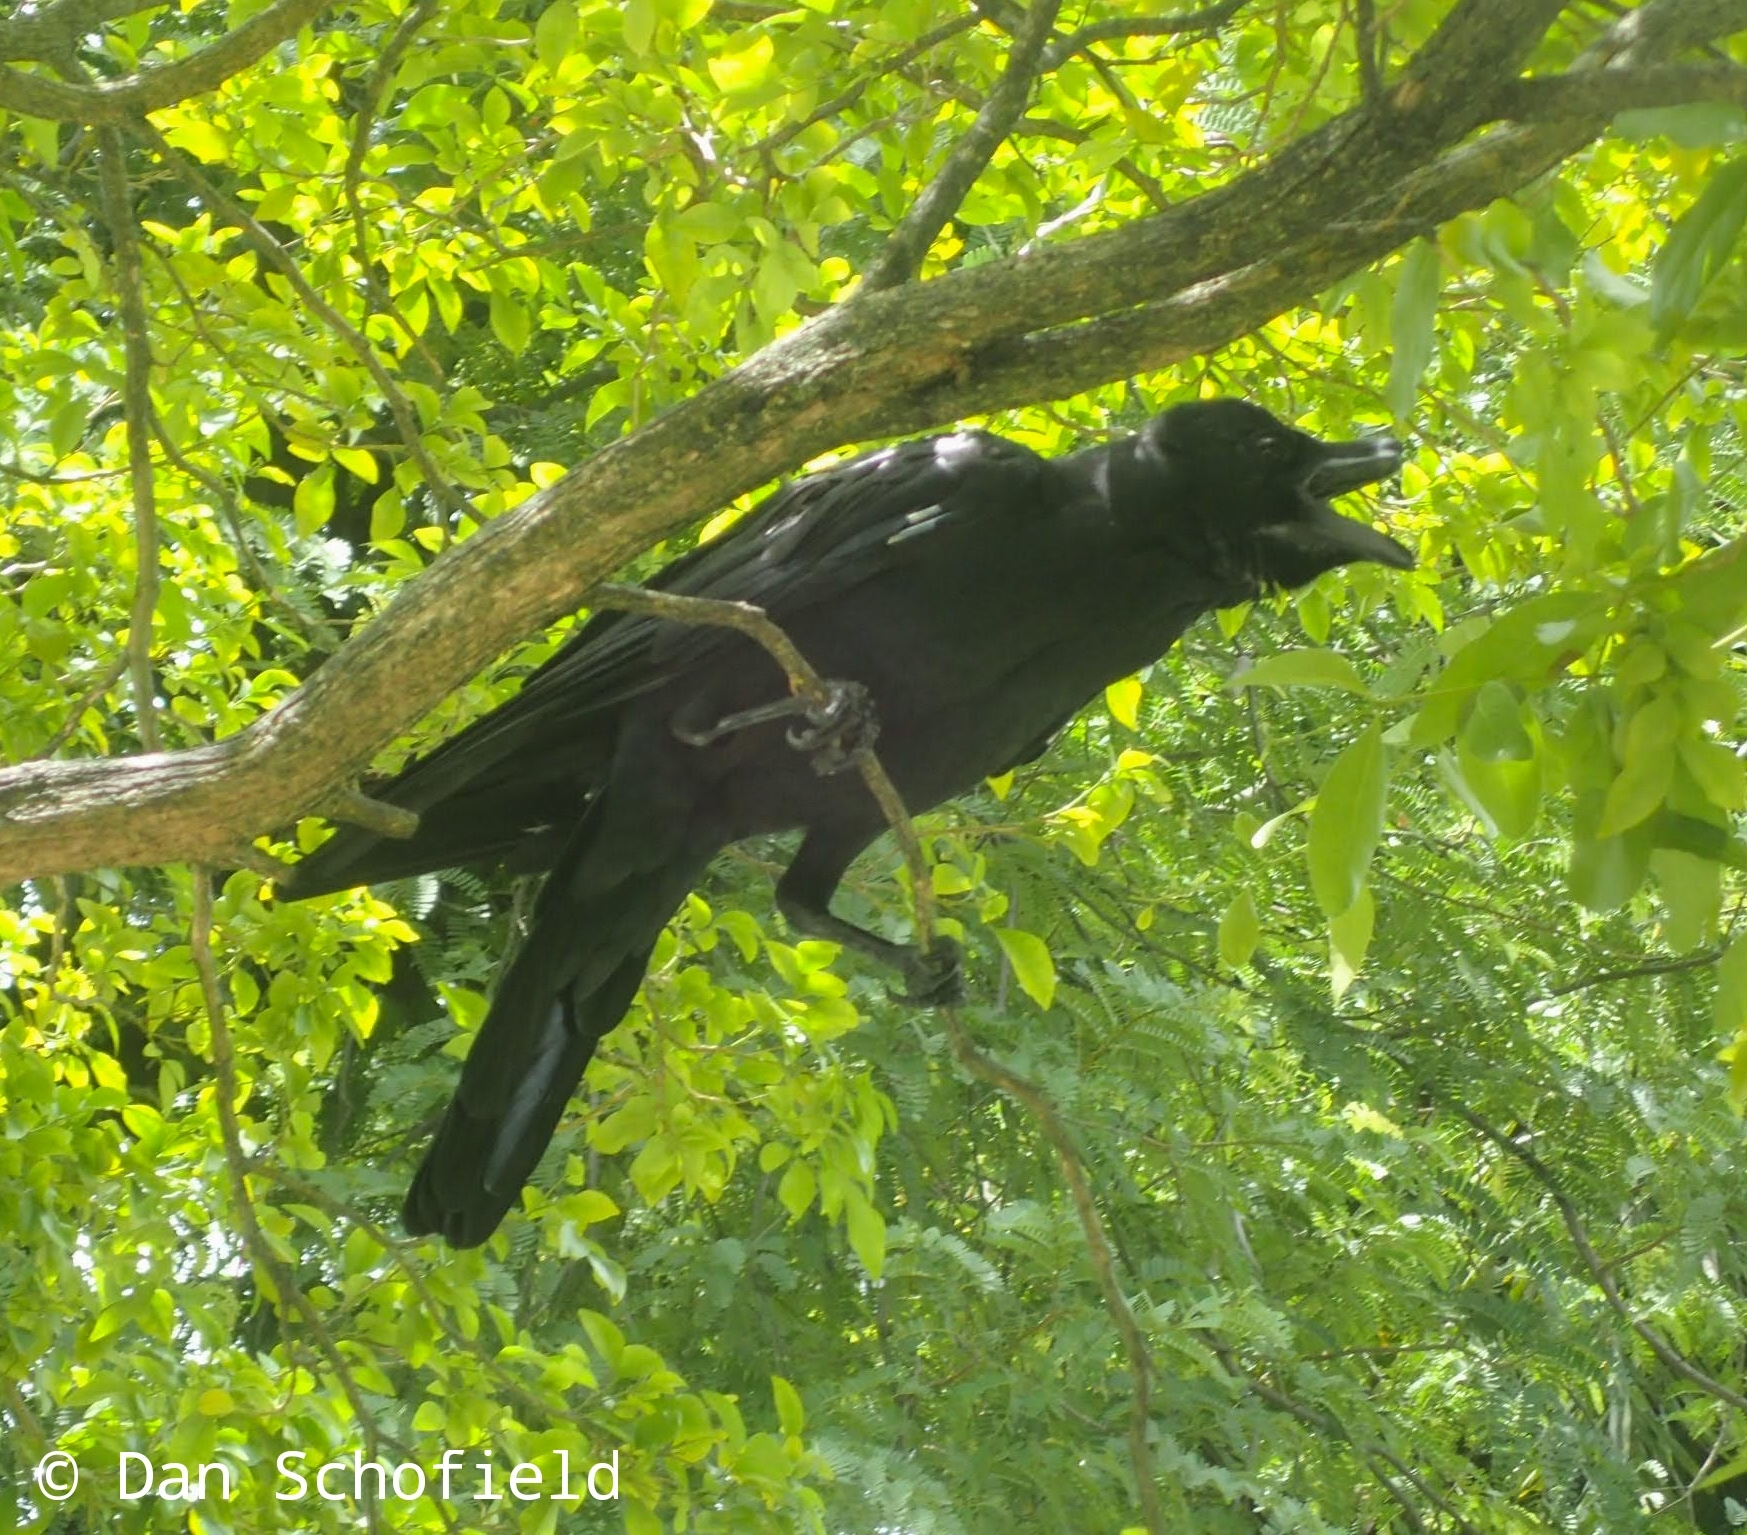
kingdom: Animalia
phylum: Chordata
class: Aves
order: Passeriformes
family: Corvidae
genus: Corvus
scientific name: Corvus macrorhynchos
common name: Large-billed crow
